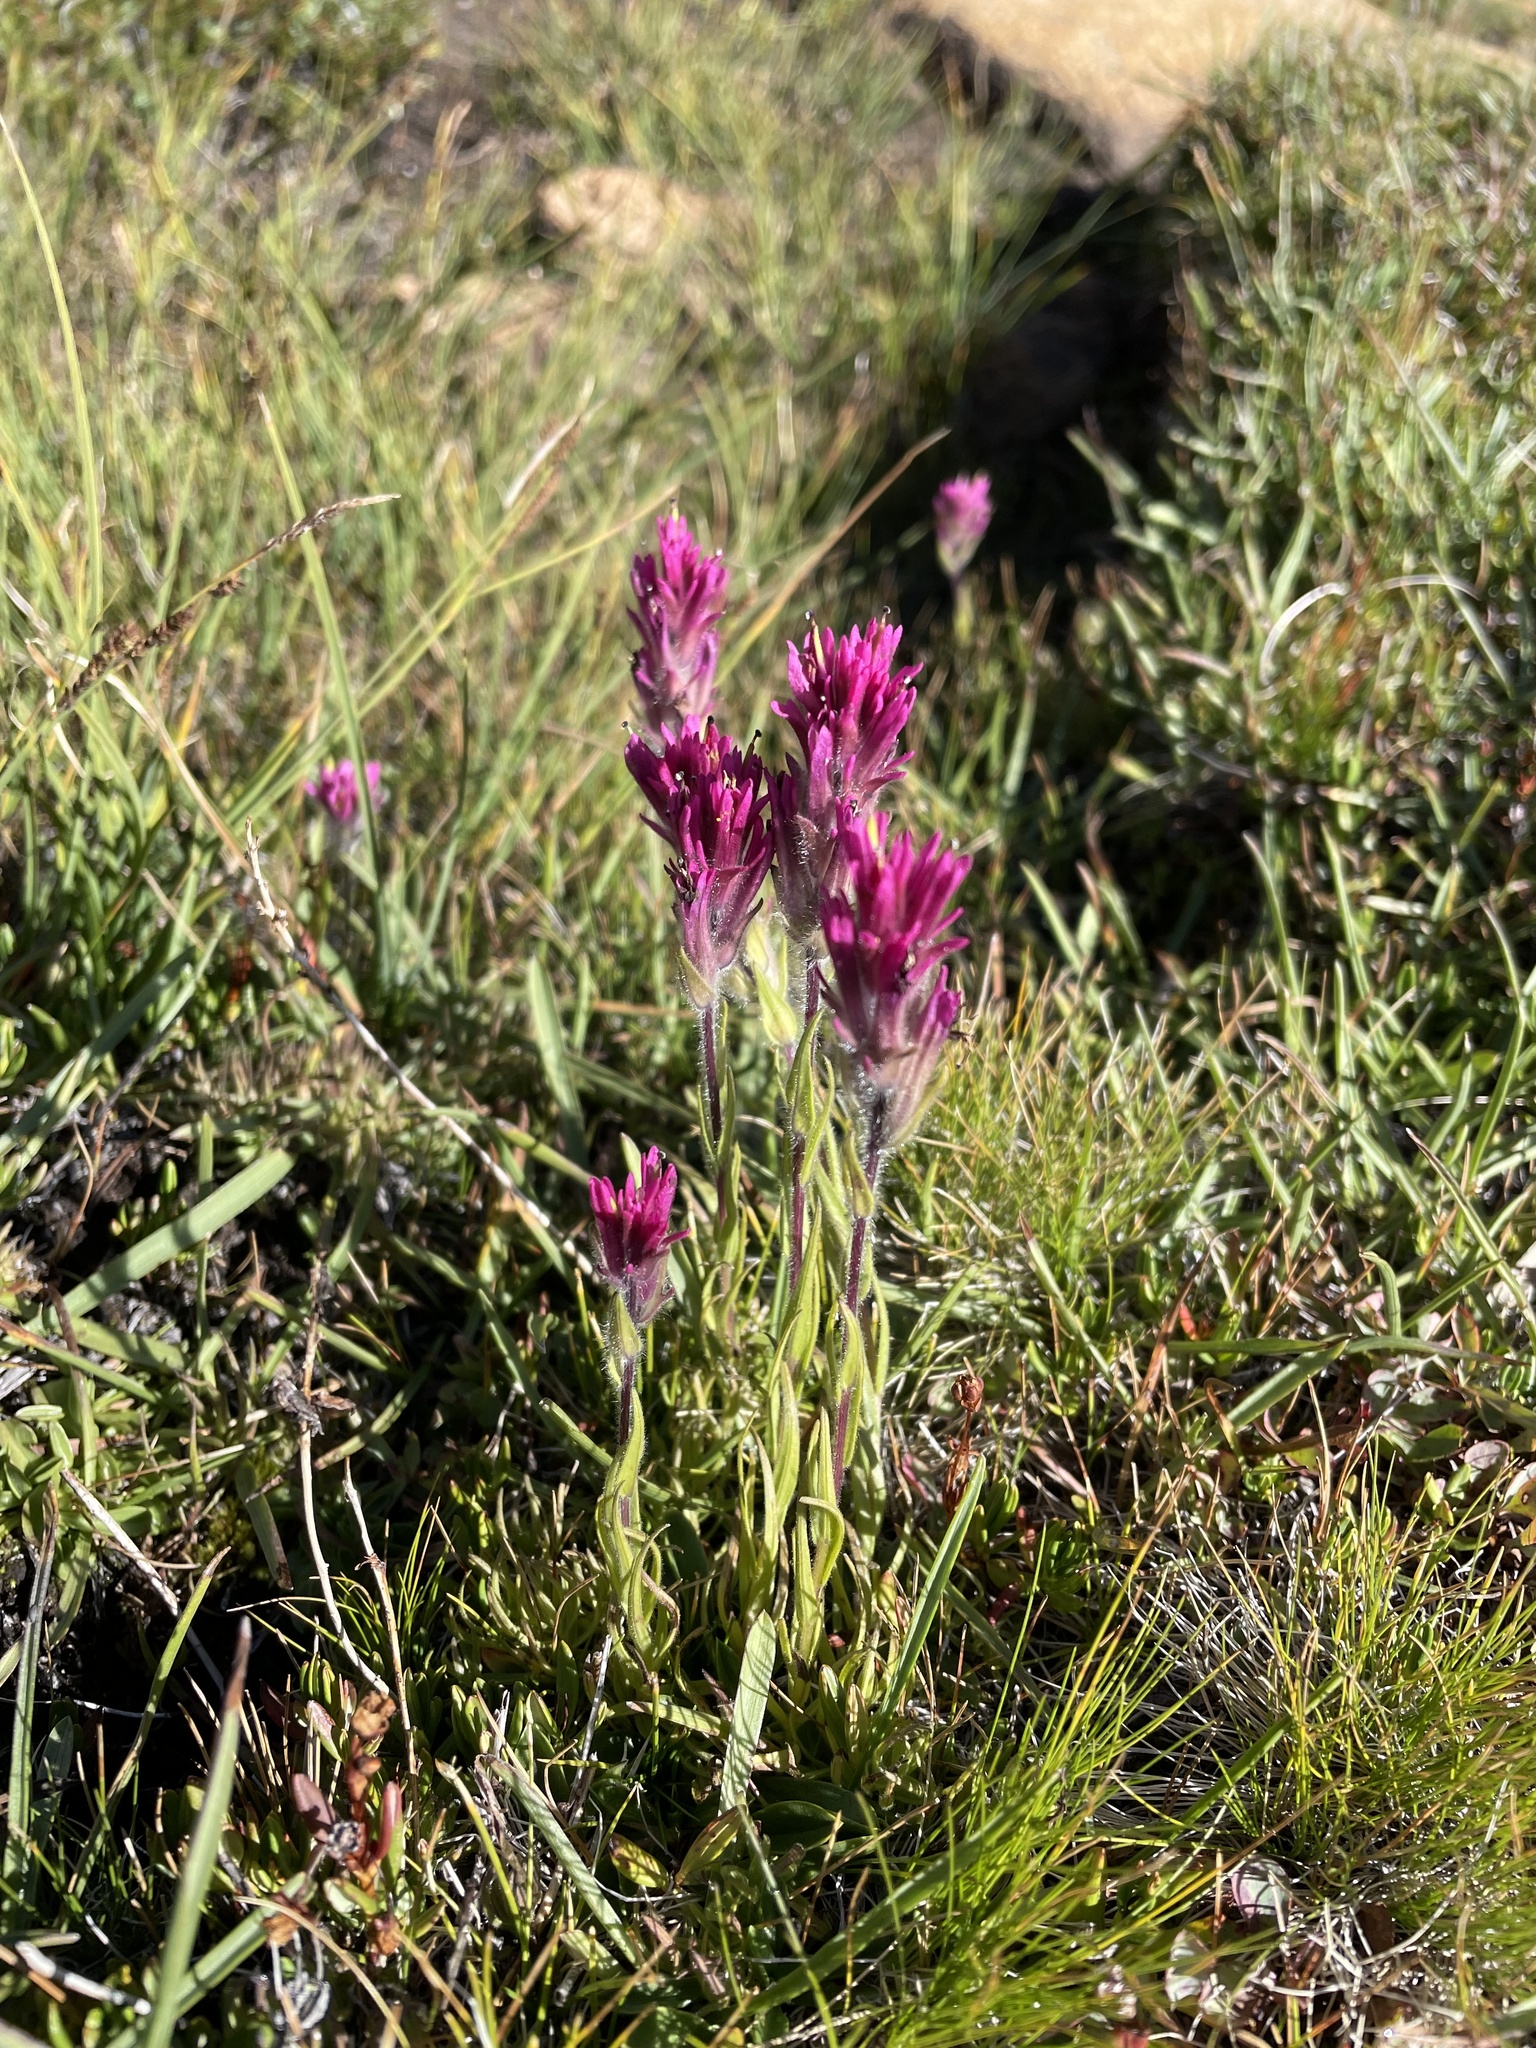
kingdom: Plantae
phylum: Tracheophyta
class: Magnoliopsida
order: Lamiales
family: Orobanchaceae
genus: Castilleja
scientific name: Castilleja lemmonii
